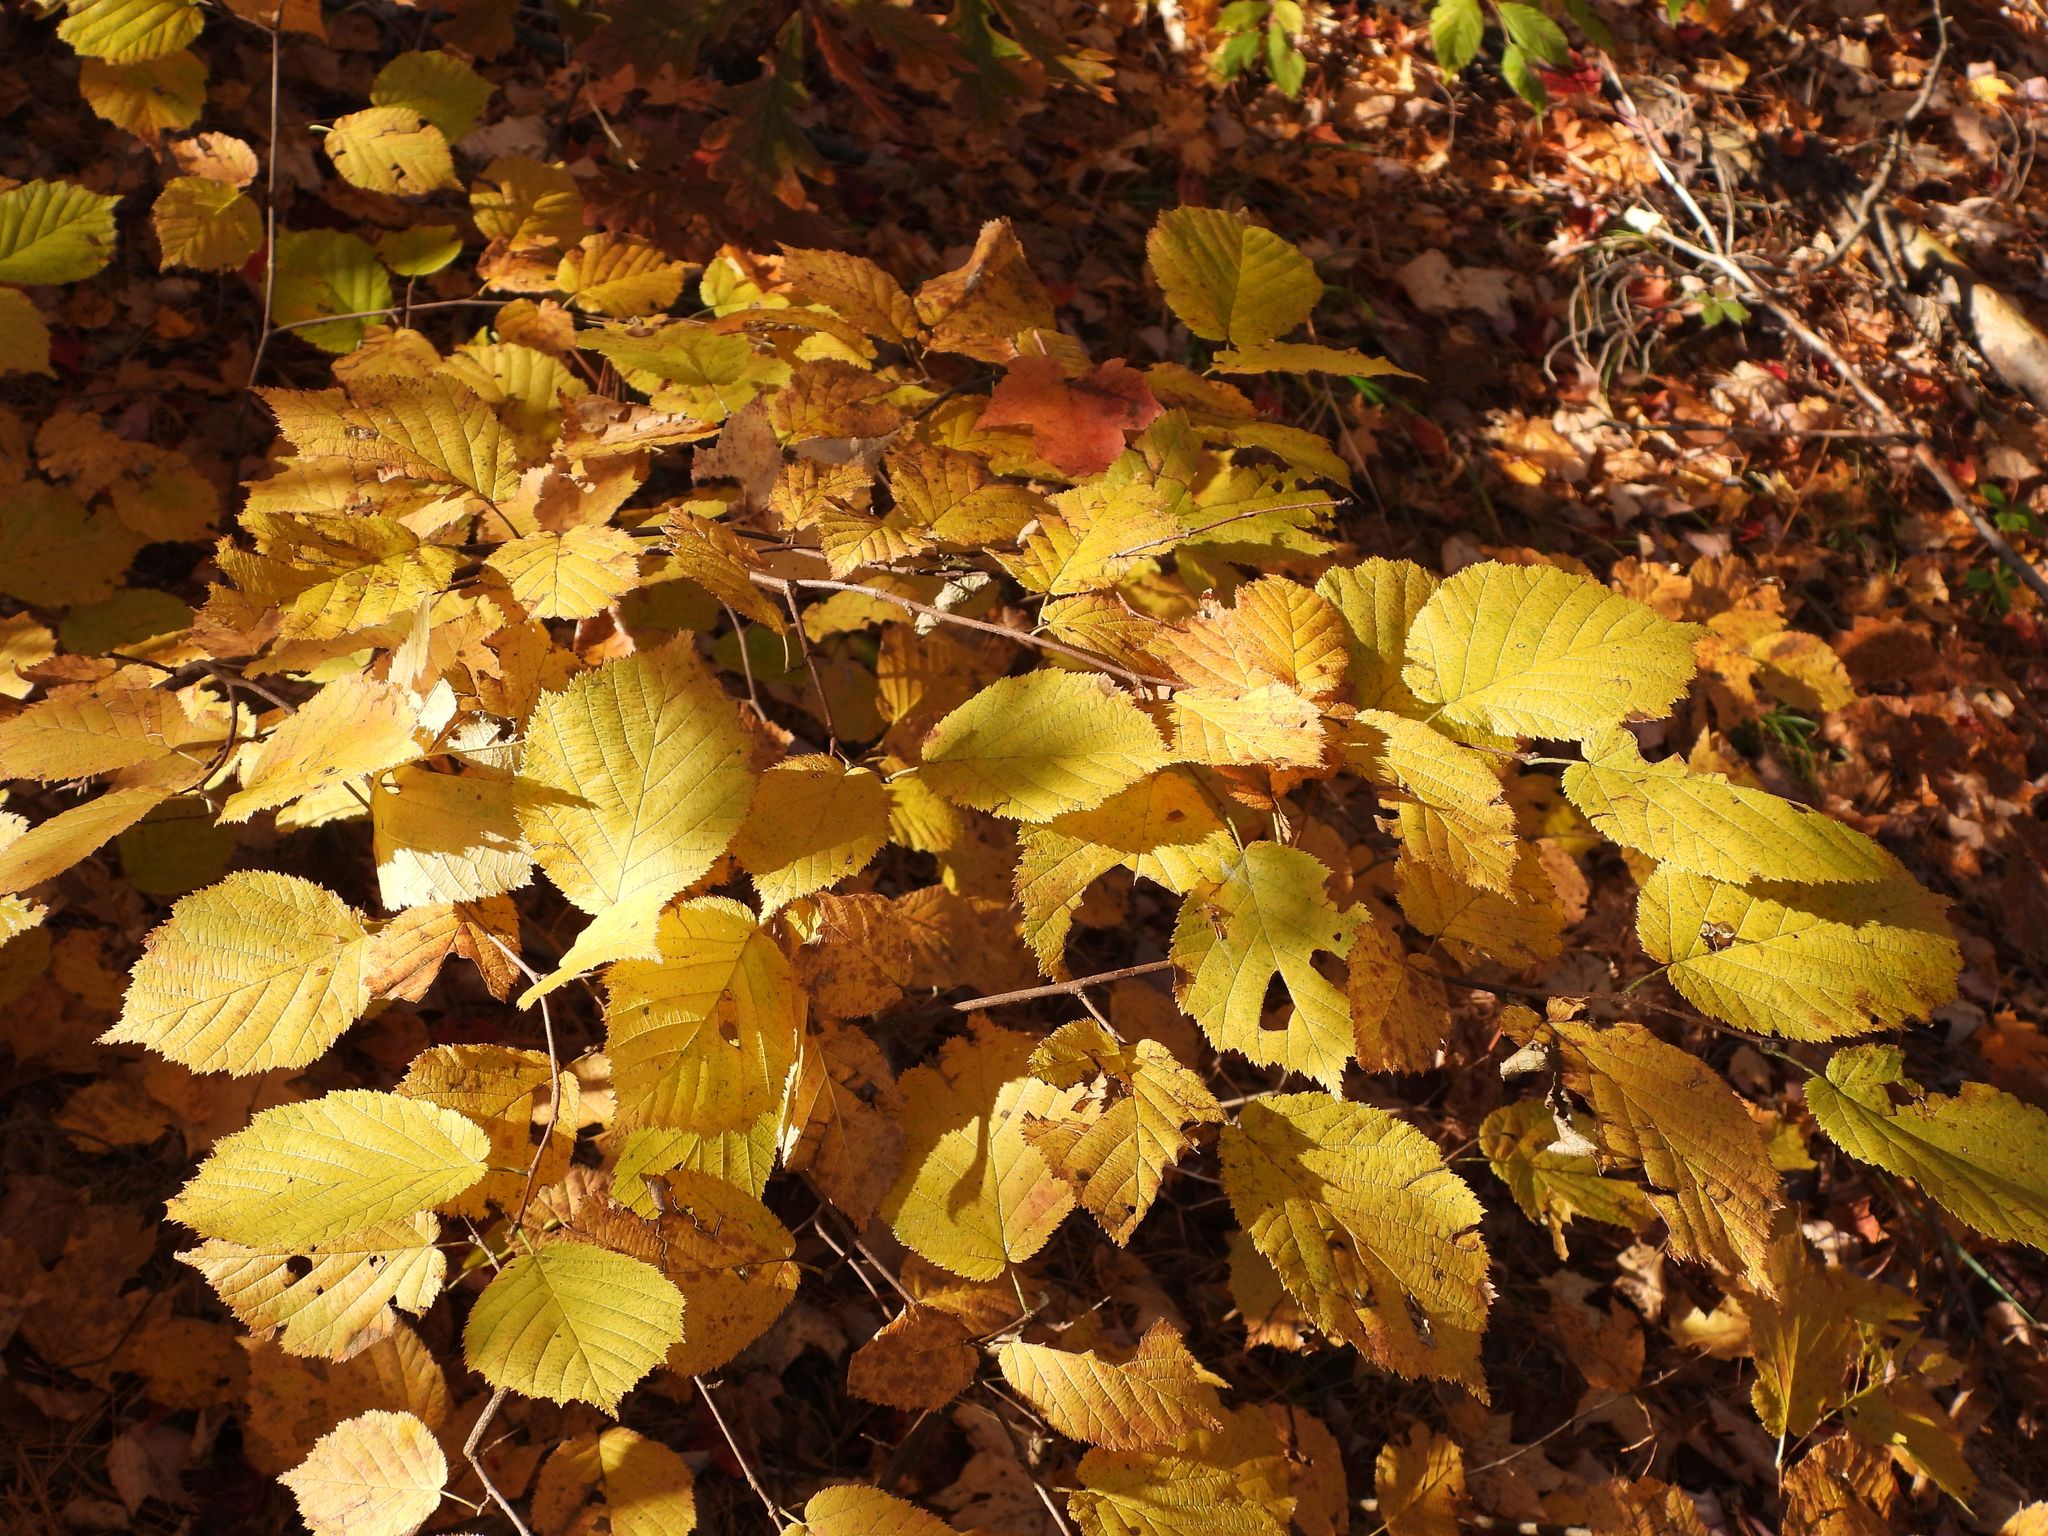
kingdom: Plantae
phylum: Tracheophyta
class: Magnoliopsida
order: Fagales
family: Betulaceae
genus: Corylus
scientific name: Corylus cornuta
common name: Beaked hazel
